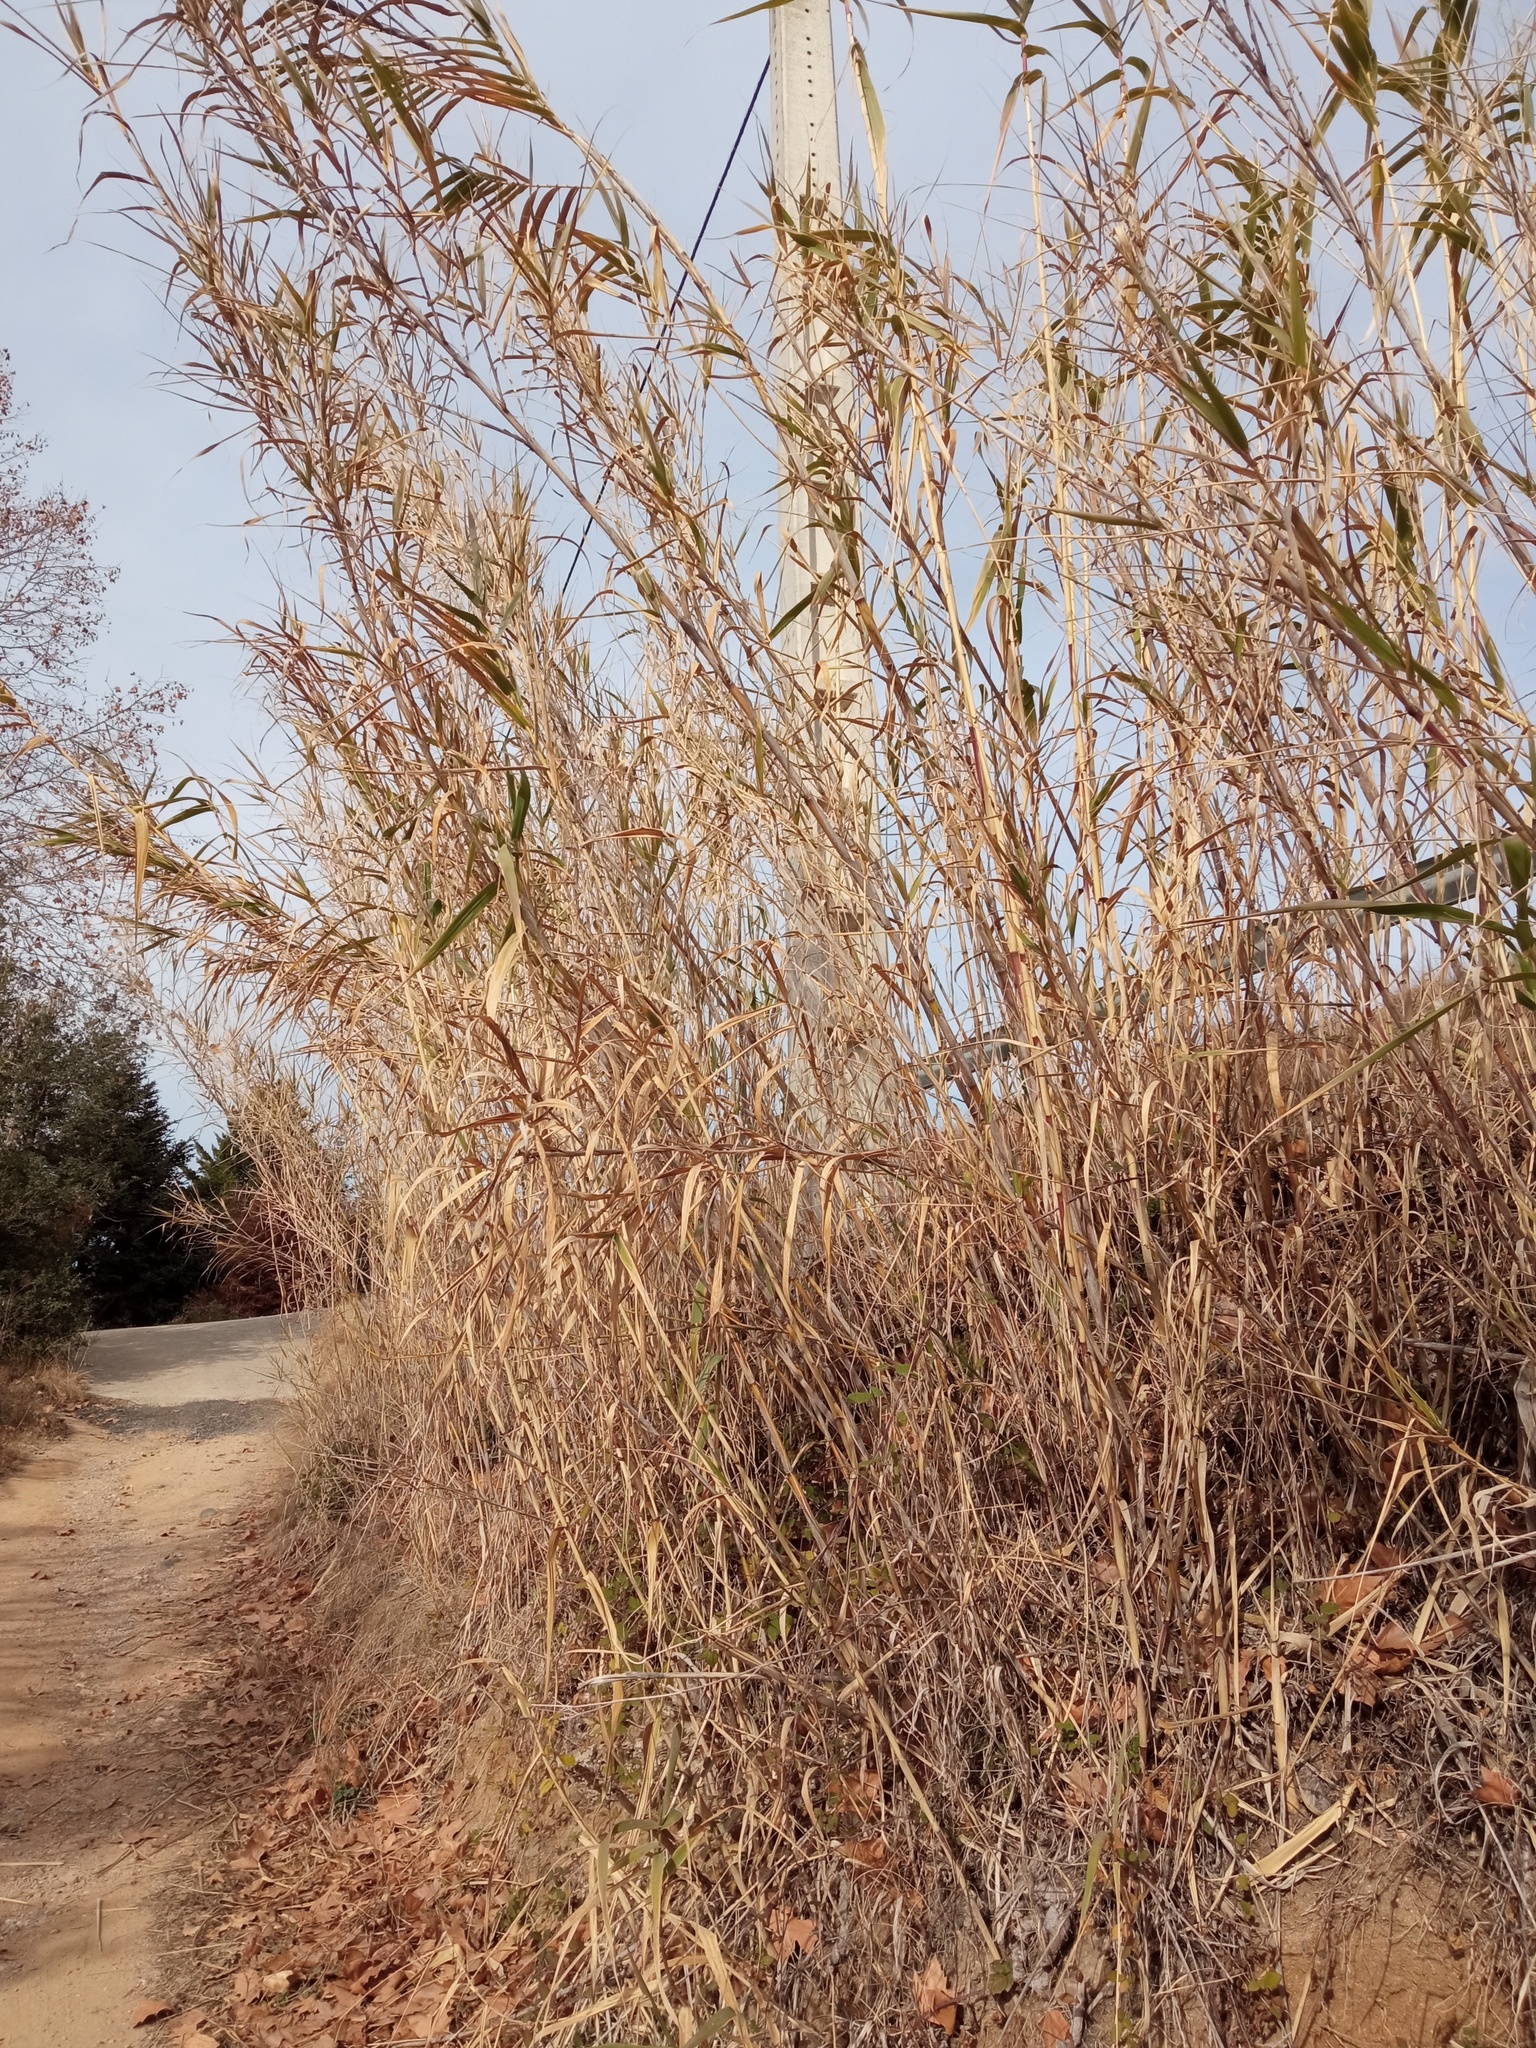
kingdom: Plantae
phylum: Tracheophyta
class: Liliopsida
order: Poales
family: Poaceae
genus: Arundo
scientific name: Arundo donax
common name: Giant reed
